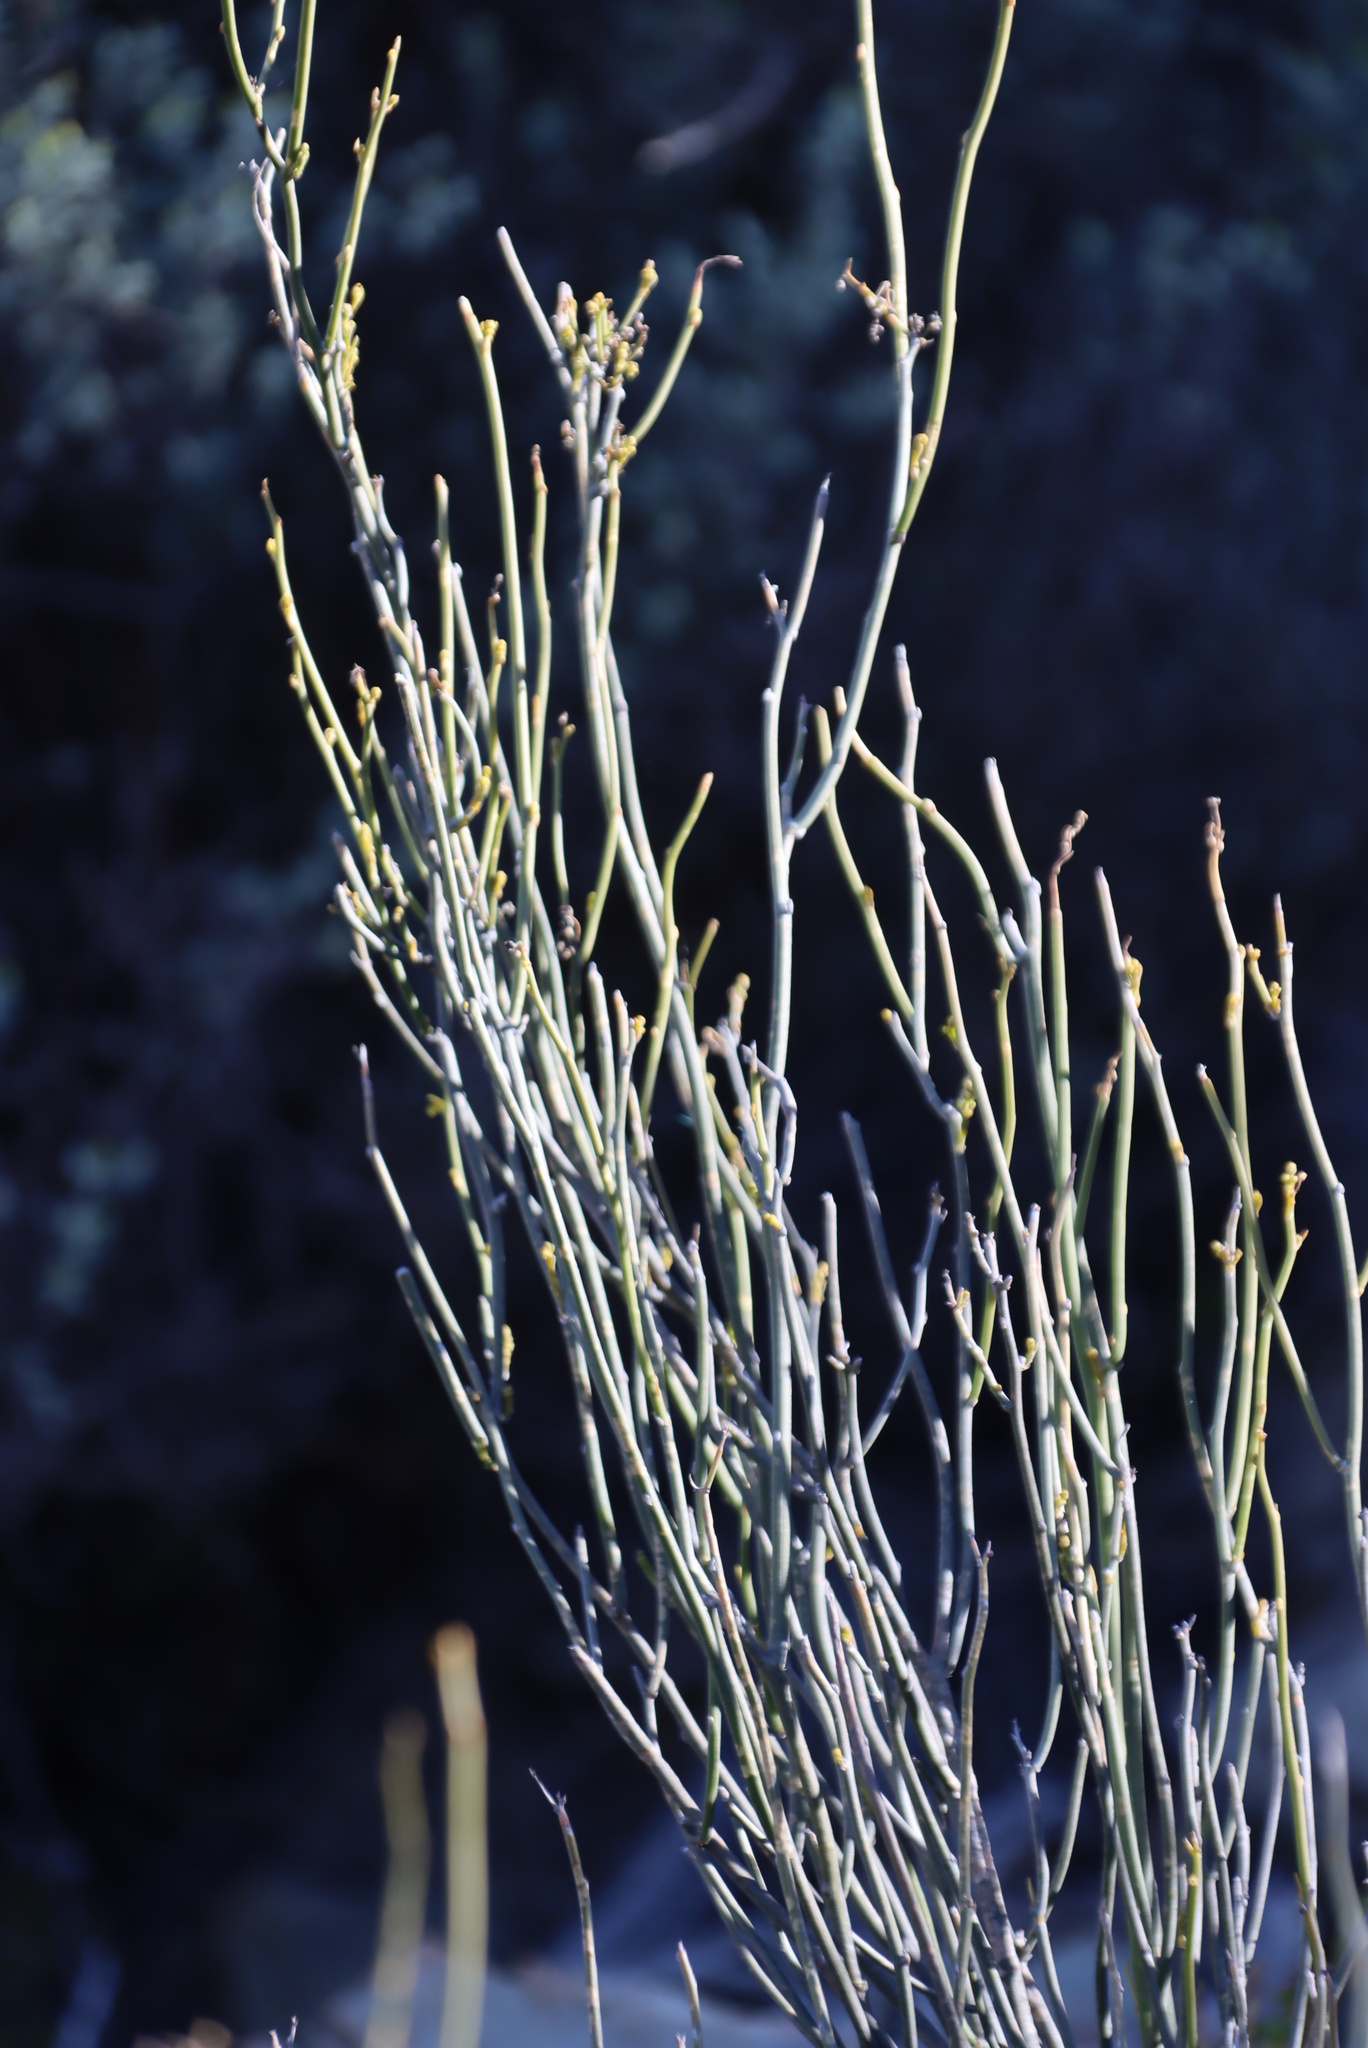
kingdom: Plantae
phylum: Tracheophyta
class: Magnoliopsida
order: Solanales
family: Montiniaceae
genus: Montinia
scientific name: Montinia caryophyllacea
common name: Wild clove-bush
